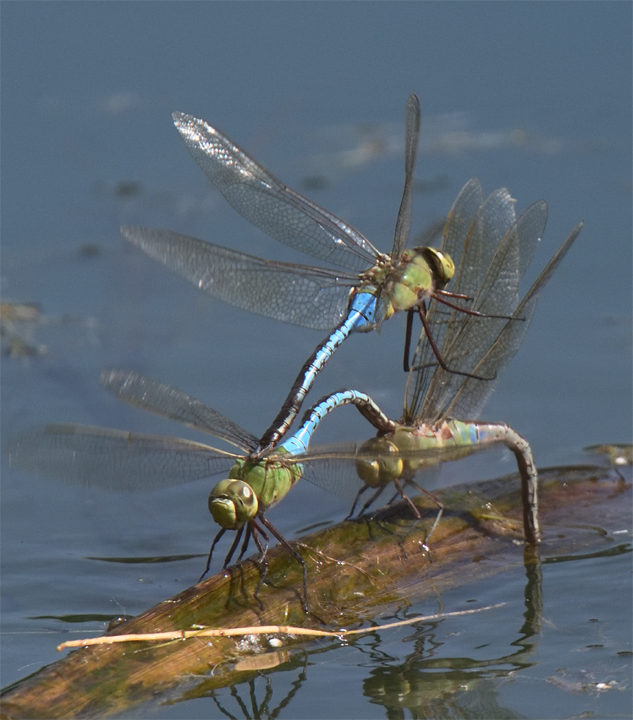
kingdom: Animalia
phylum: Arthropoda
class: Insecta
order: Odonata
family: Aeshnidae
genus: Anax
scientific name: Anax junius
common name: Common green darner
